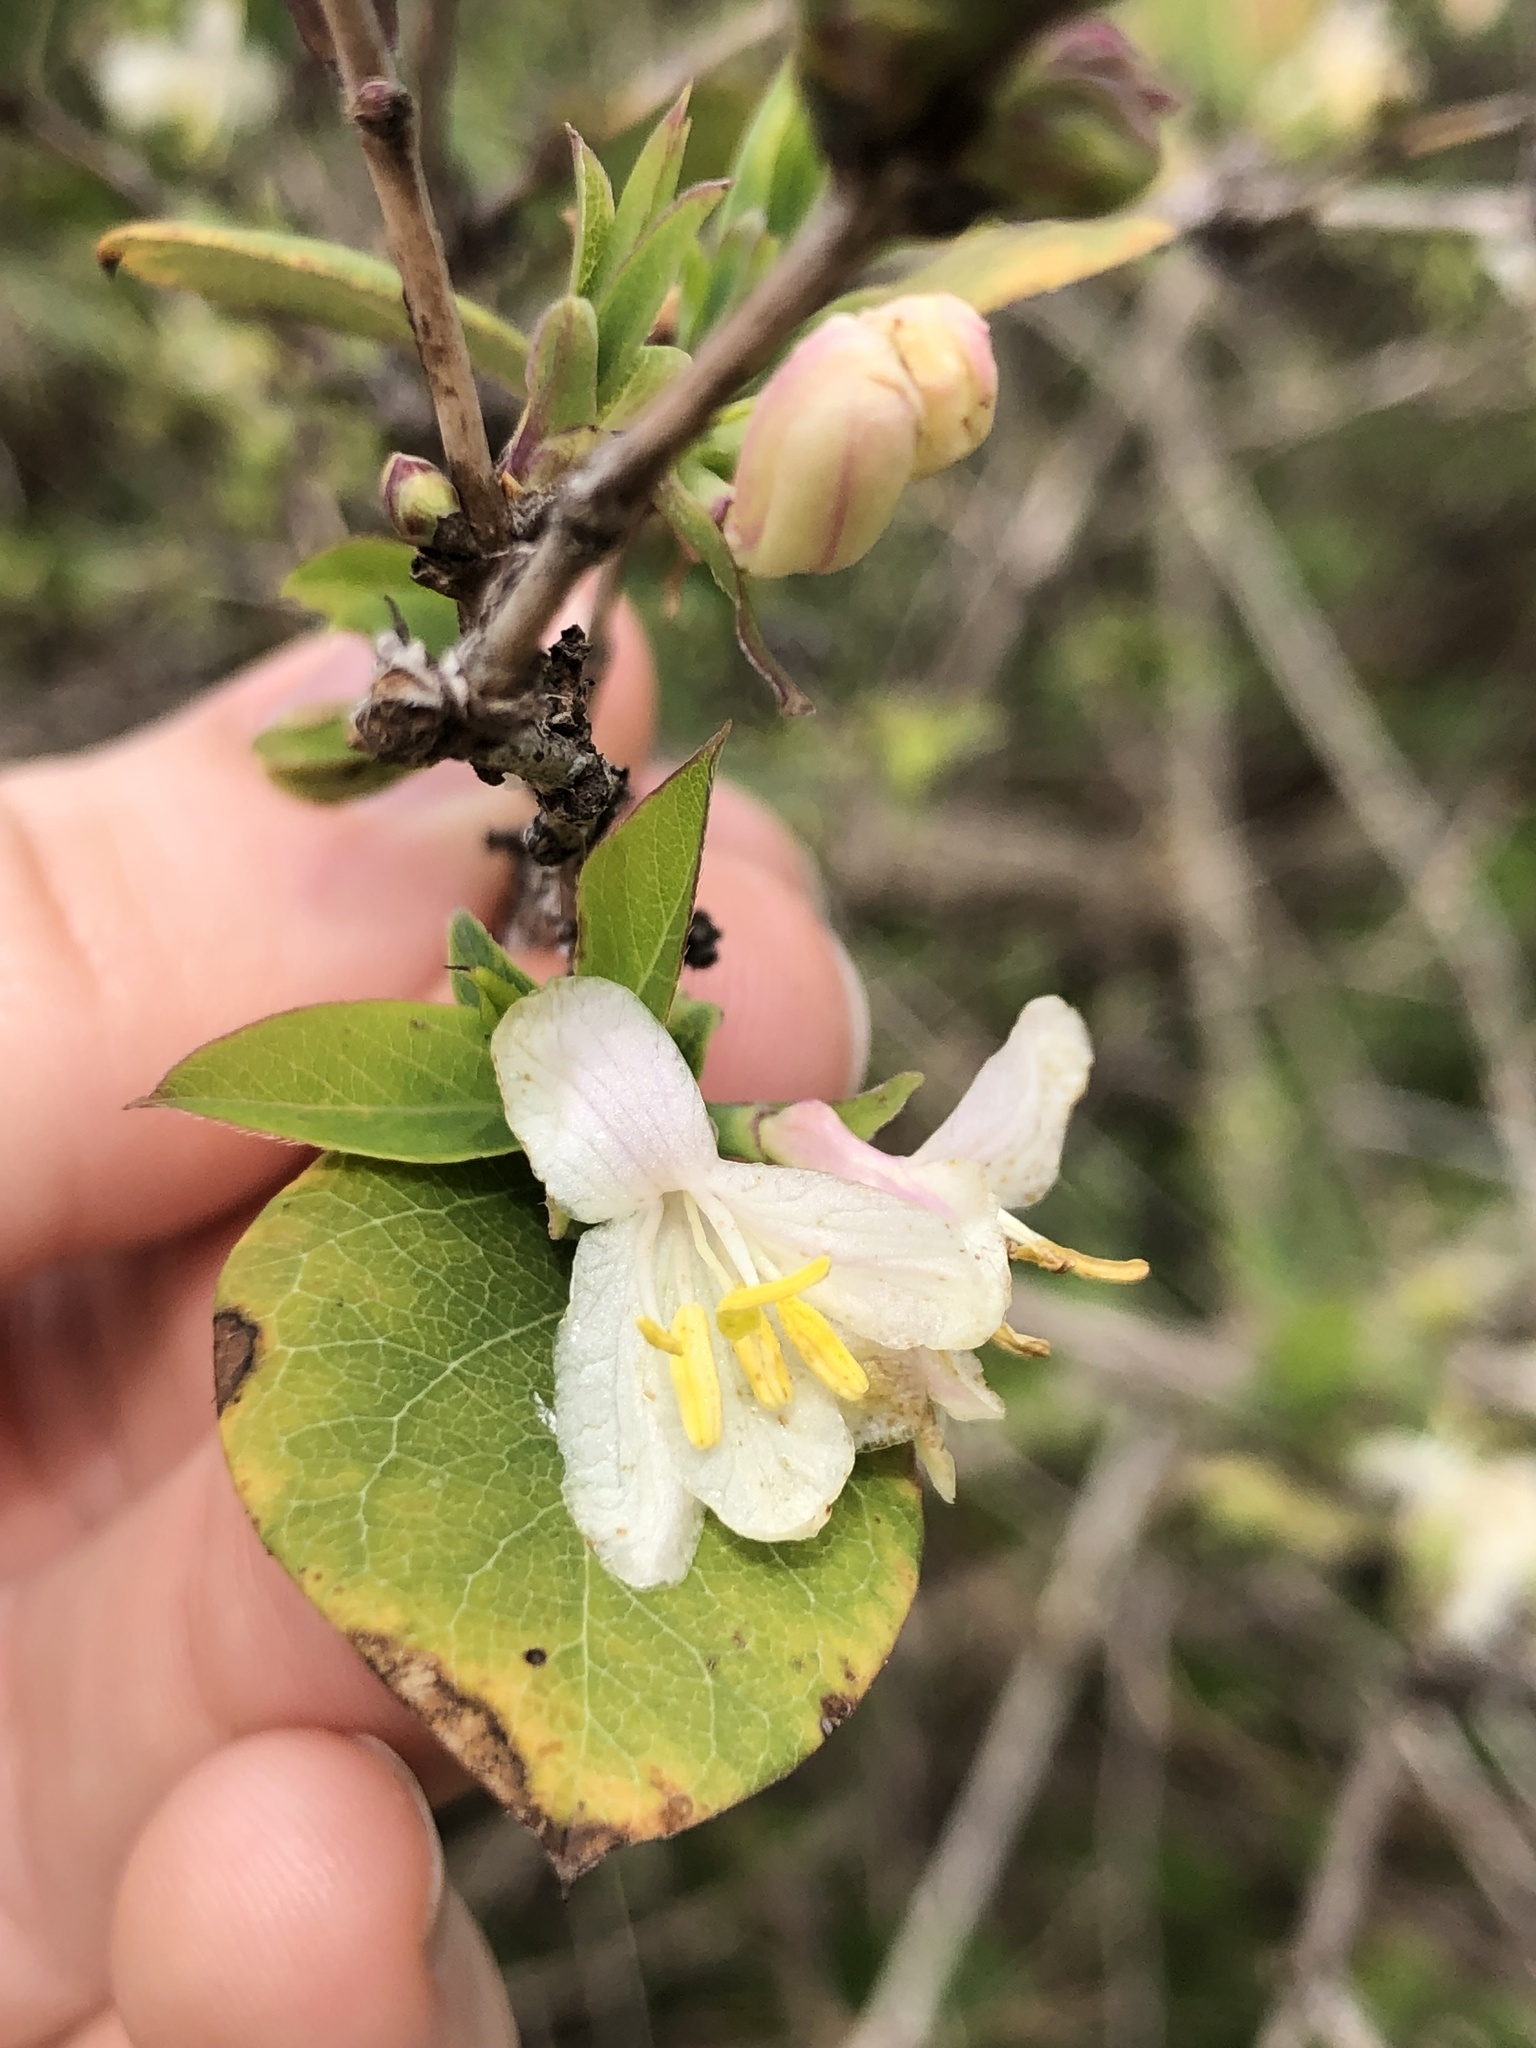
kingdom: Plantae
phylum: Tracheophyta
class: Magnoliopsida
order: Dipsacales
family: Caprifoliaceae
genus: Lonicera
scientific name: Lonicera fragrantissima
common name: Fragrant honeysuckle
